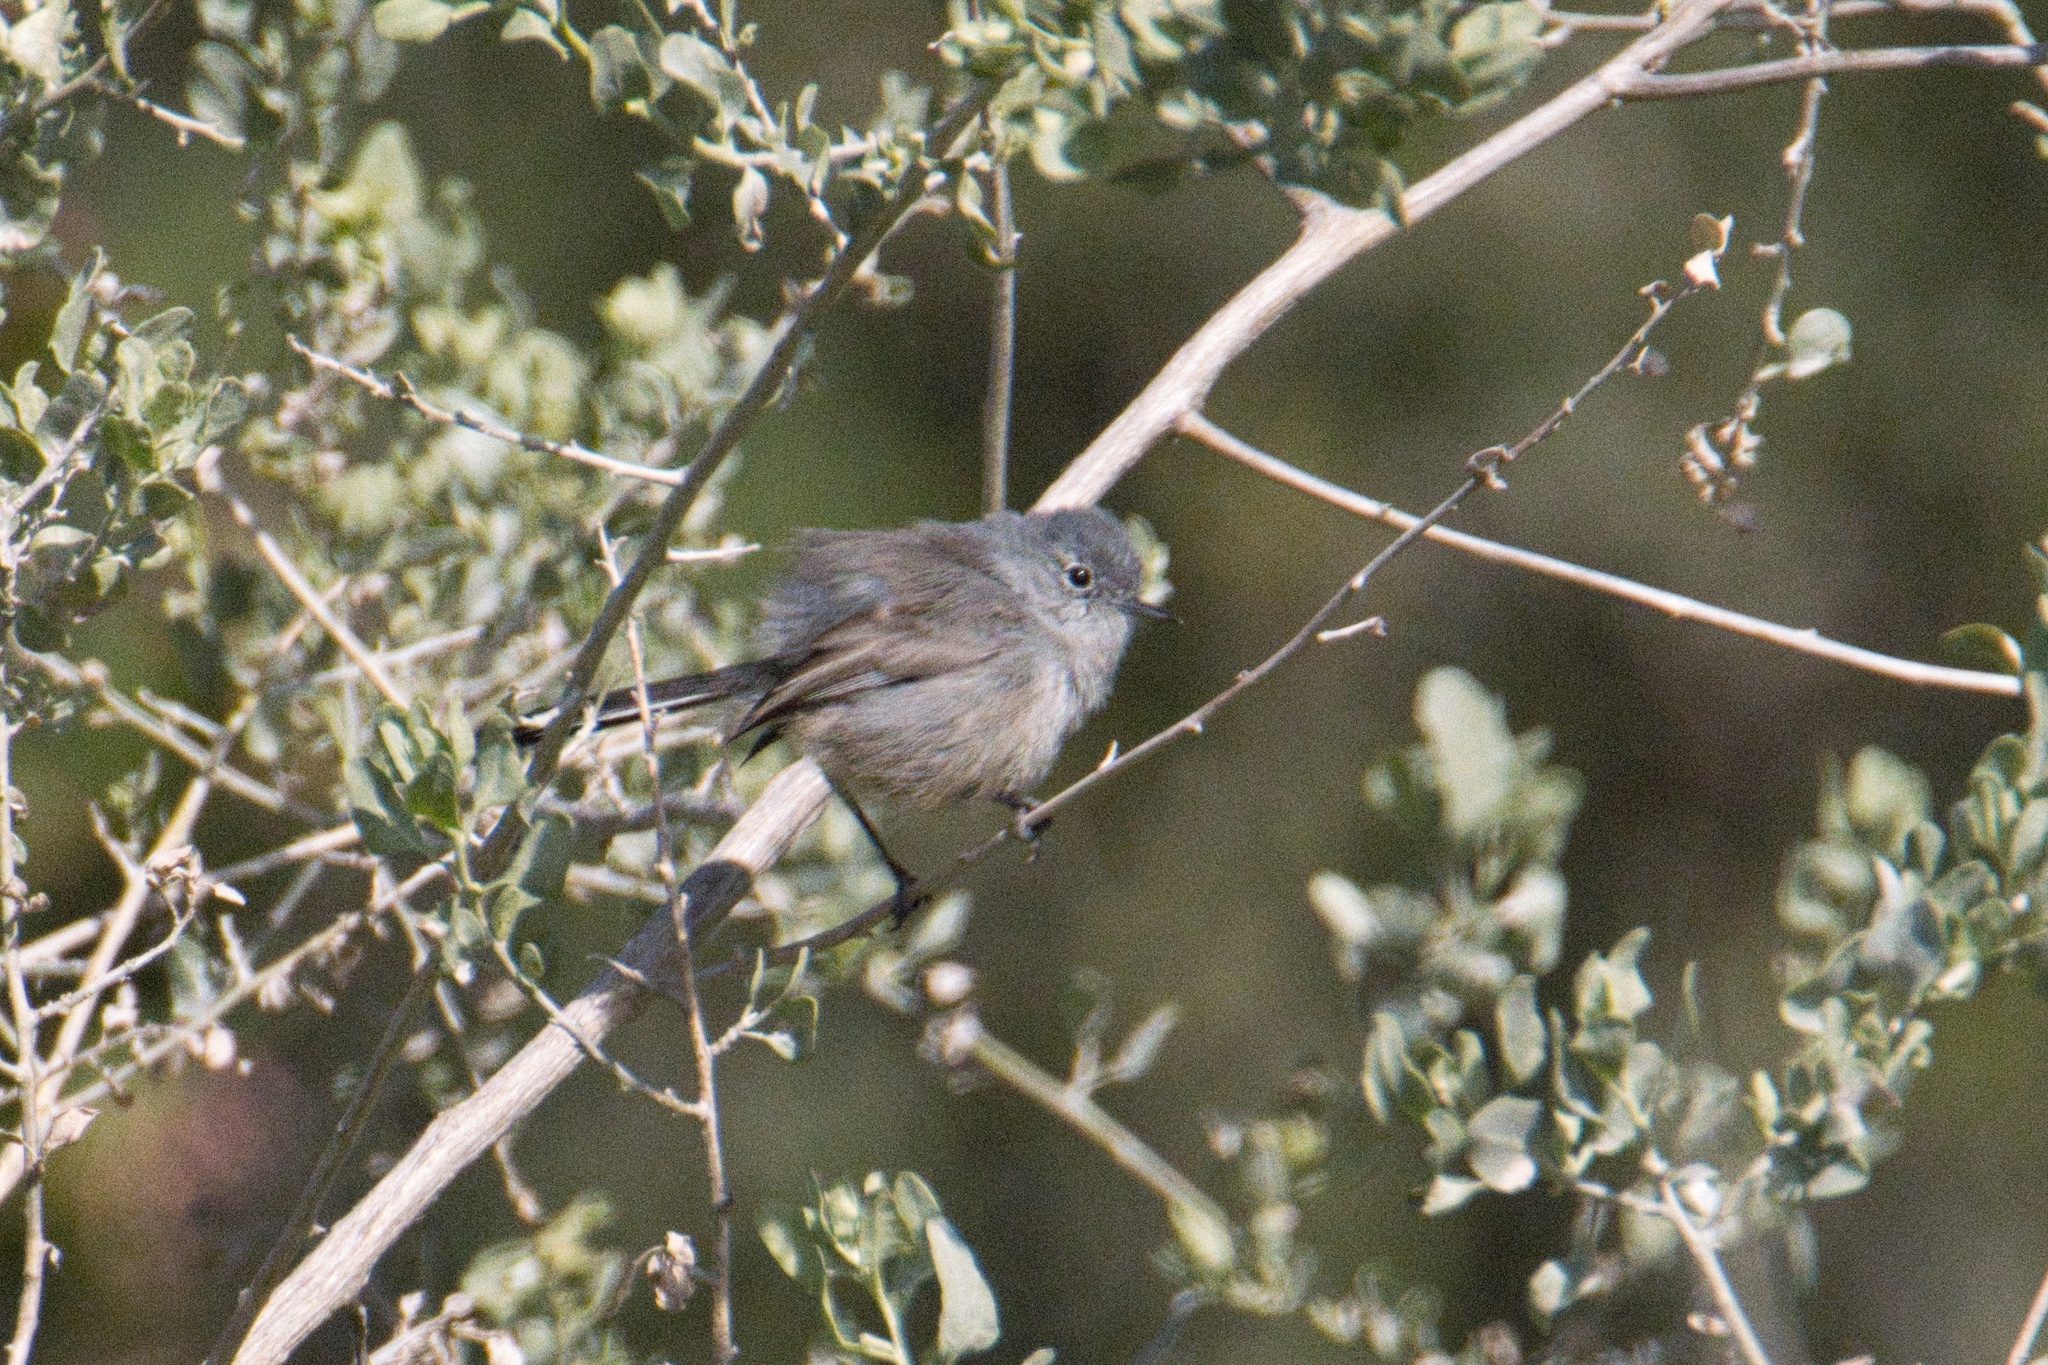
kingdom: Animalia
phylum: Chordata
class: Aves
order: Passeriformes
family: Polioptilidae
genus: Polioptila
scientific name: Polioptila californica
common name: California gnatcatcher
